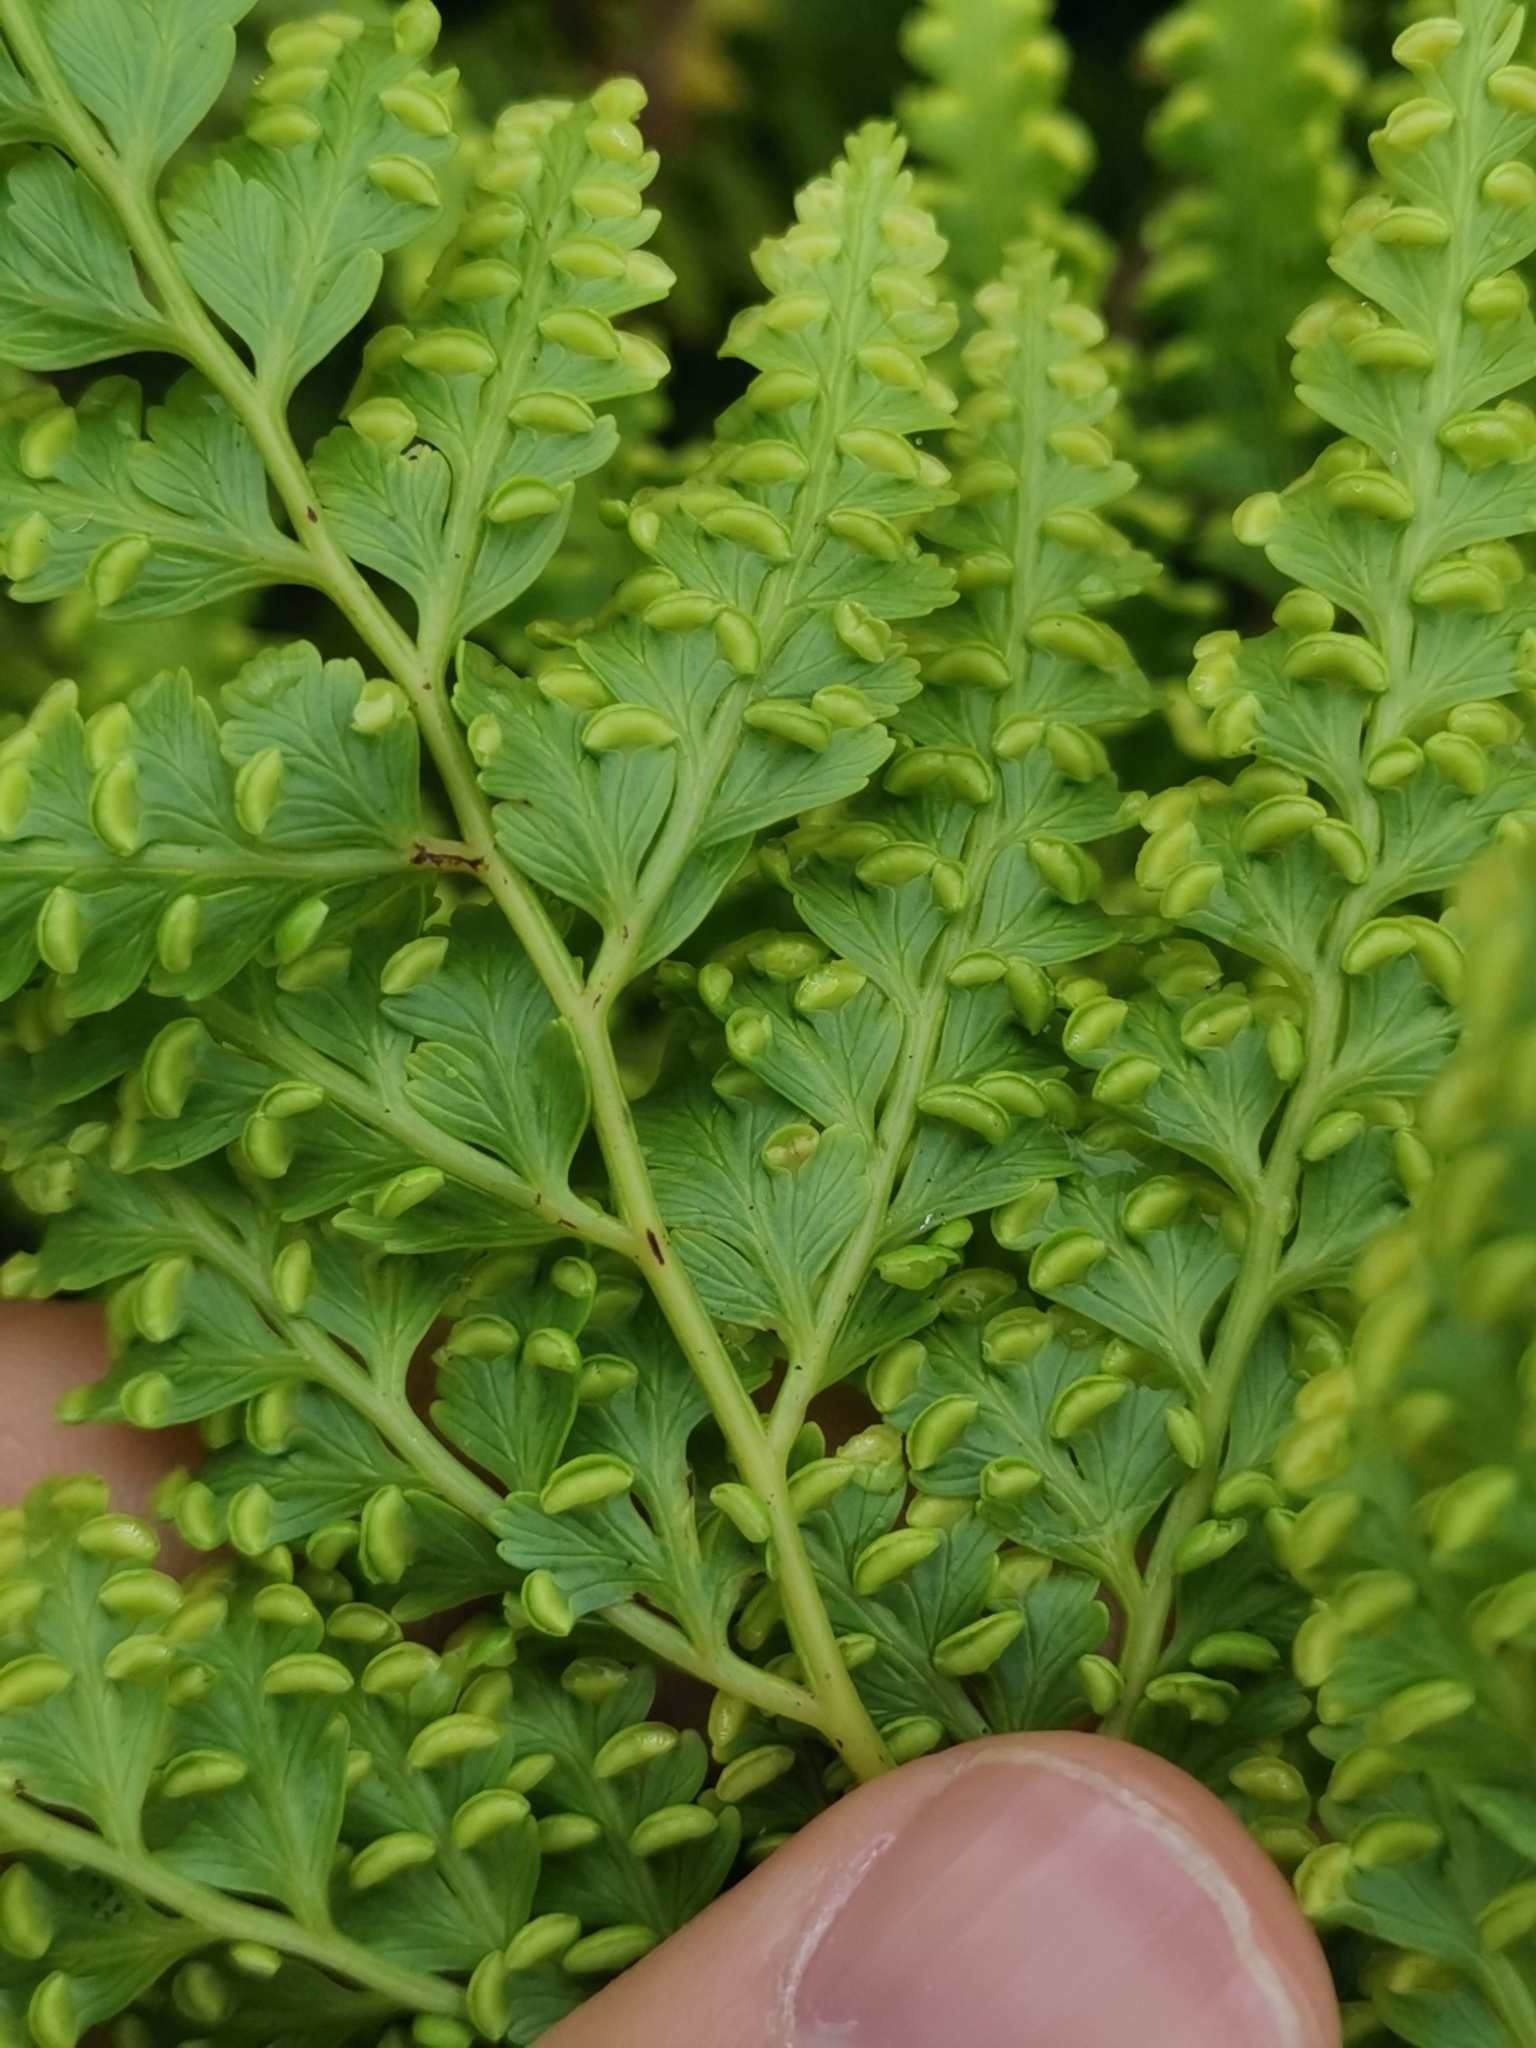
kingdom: Plantae
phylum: Tracheophyta
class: Polypodiopsida
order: Cyatheales
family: Culcitaceae
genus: Culcita
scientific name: Culcita macrocarpa
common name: Woolly tree fern
